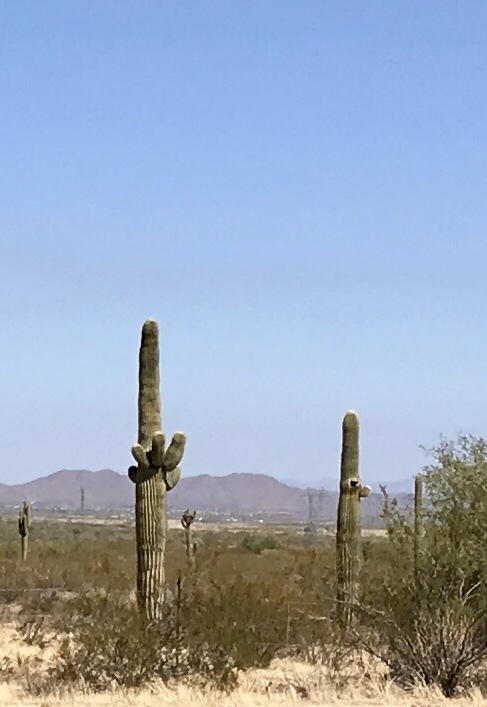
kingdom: Plantae
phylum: Tracheophyta
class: Magnoliopsida
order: Caryophyllales
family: Cactaceae
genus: Carnegiea
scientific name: Carnegiea gigantea
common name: Saguaro
